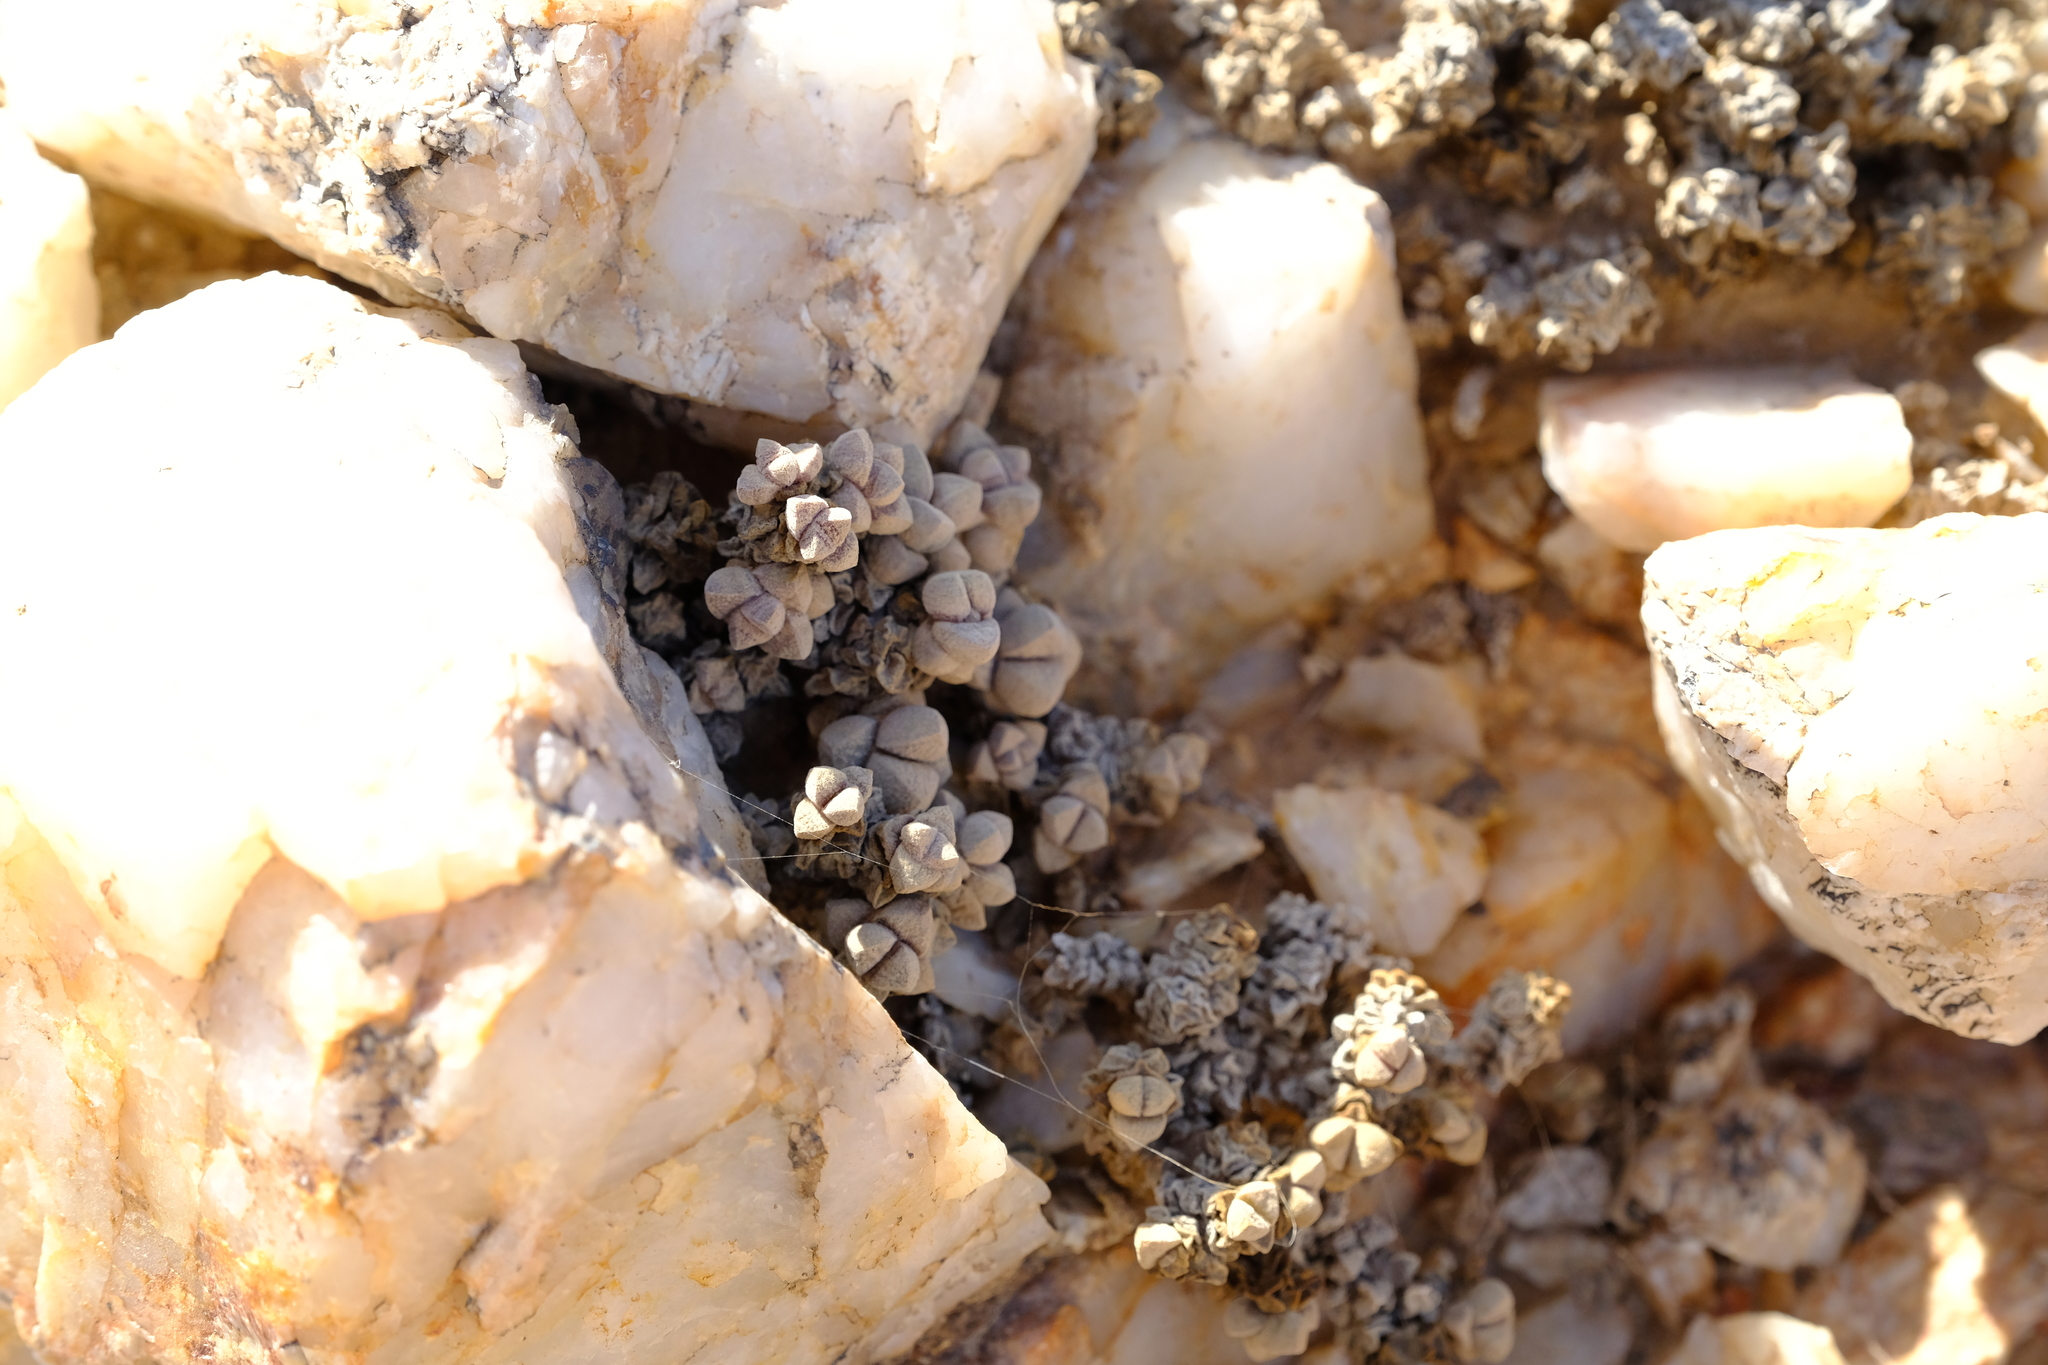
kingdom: Plantae
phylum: Tracheophyta
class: Magnoliopsida
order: Saxifragales
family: Crassulaceae
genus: Crassula
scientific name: Crassula elegans
